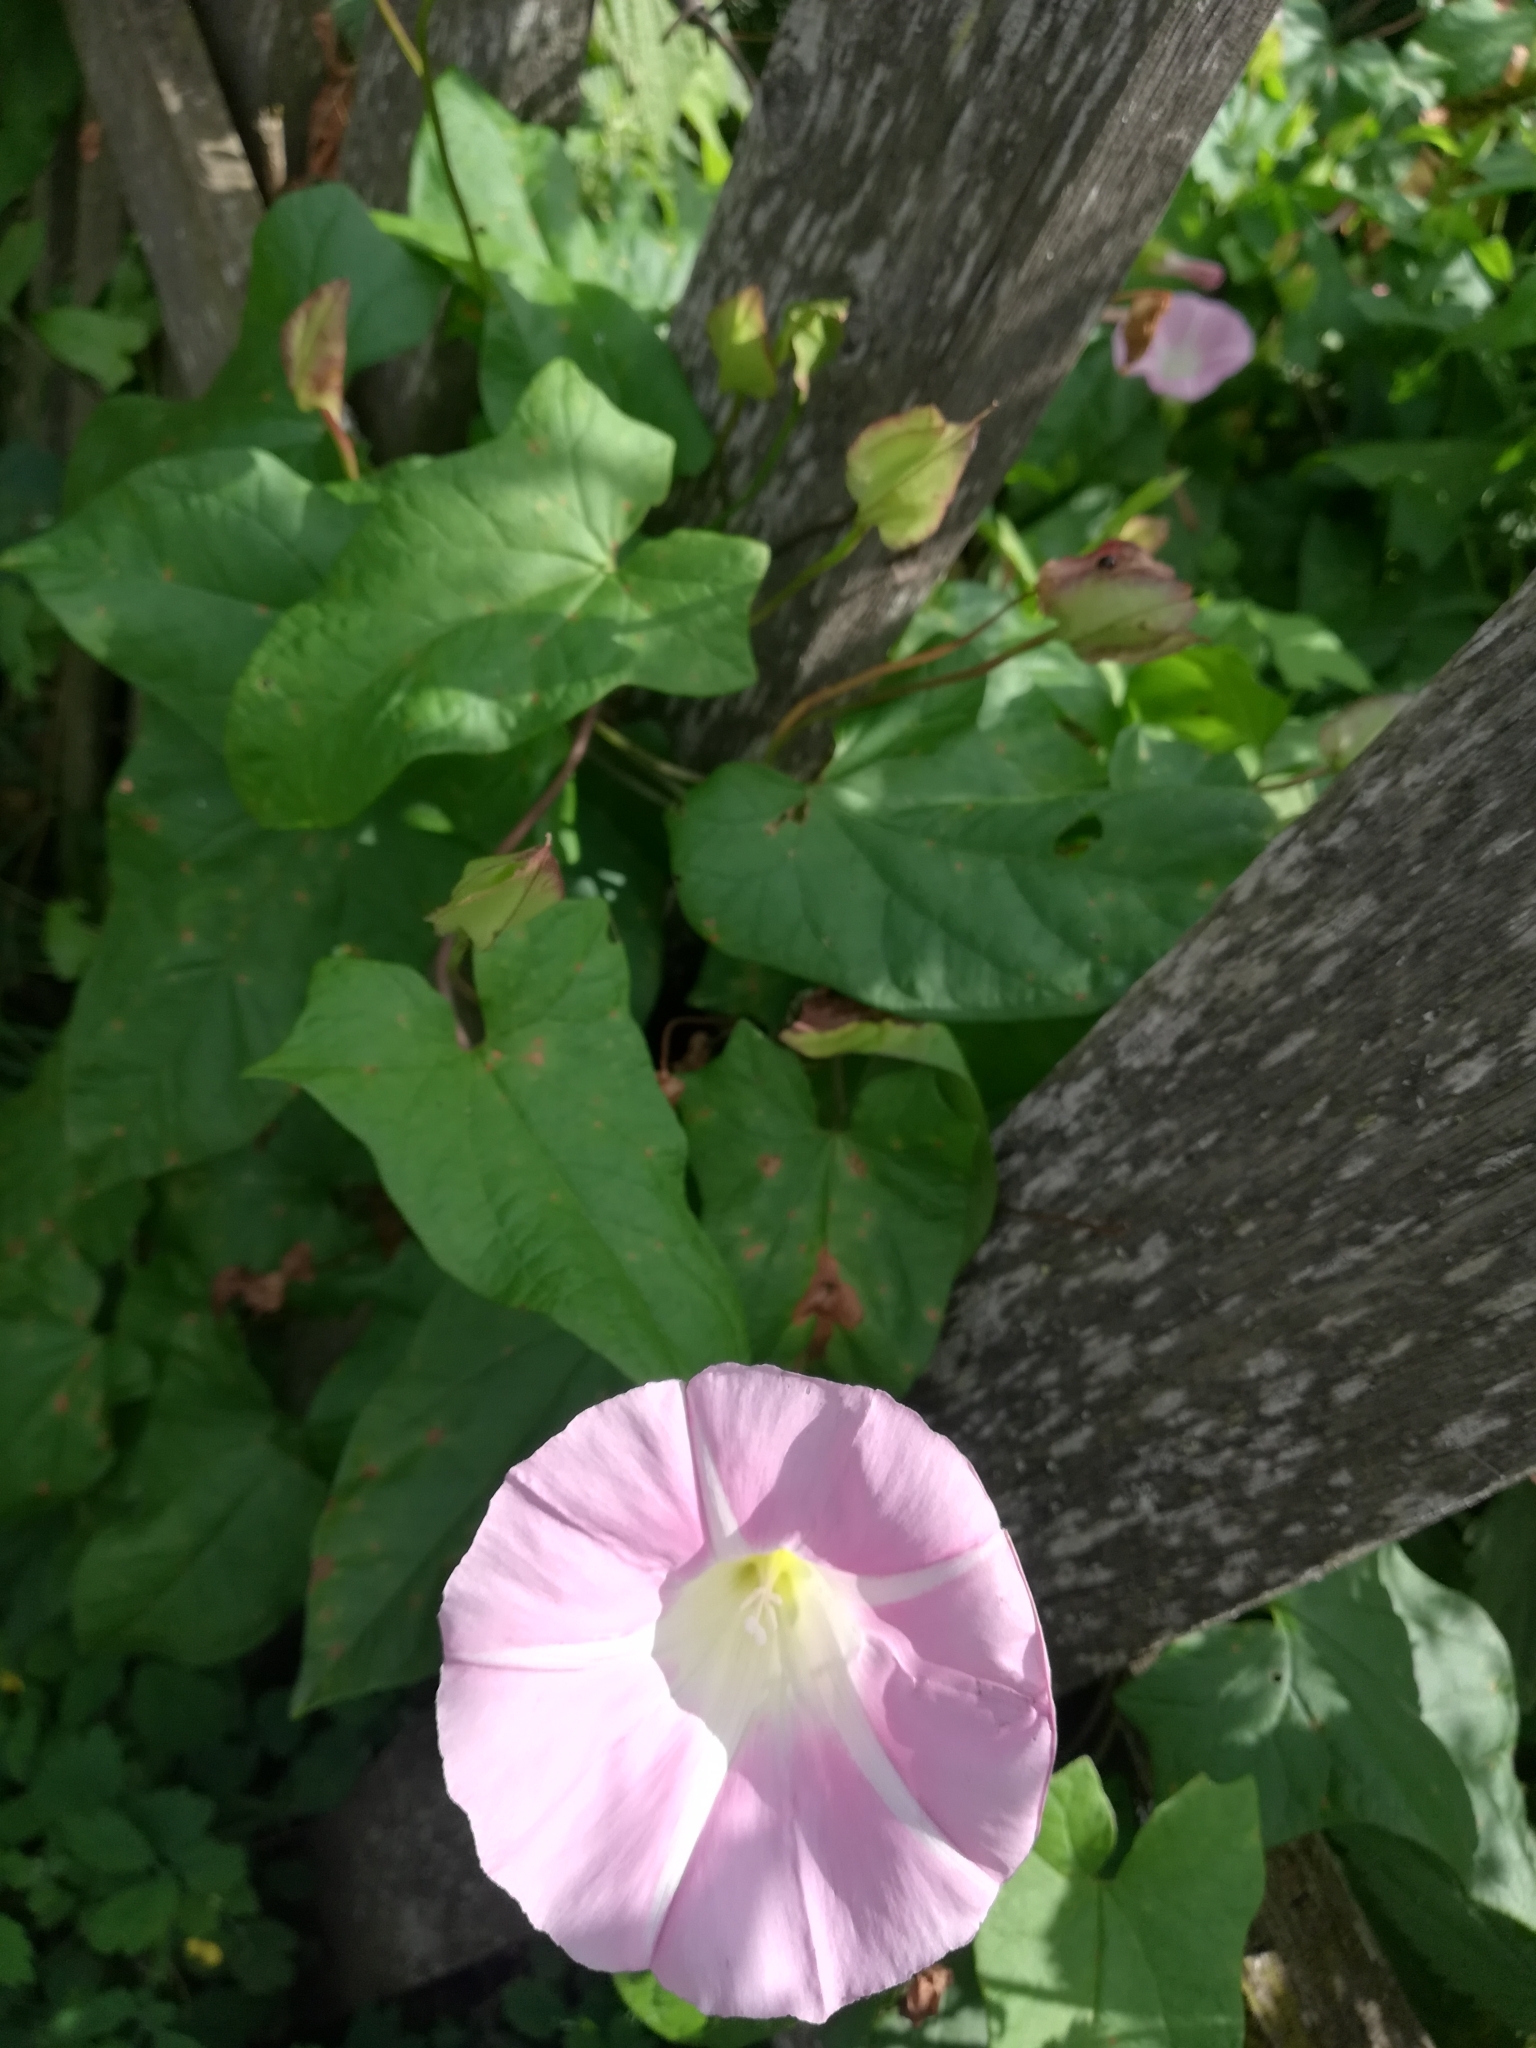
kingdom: Plantae
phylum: Tracheophyta
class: Magnoliopsida
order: Solanales
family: Convolvulaceae
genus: Calystegia
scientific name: Calystegia sepium
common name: Hedge bindweed
